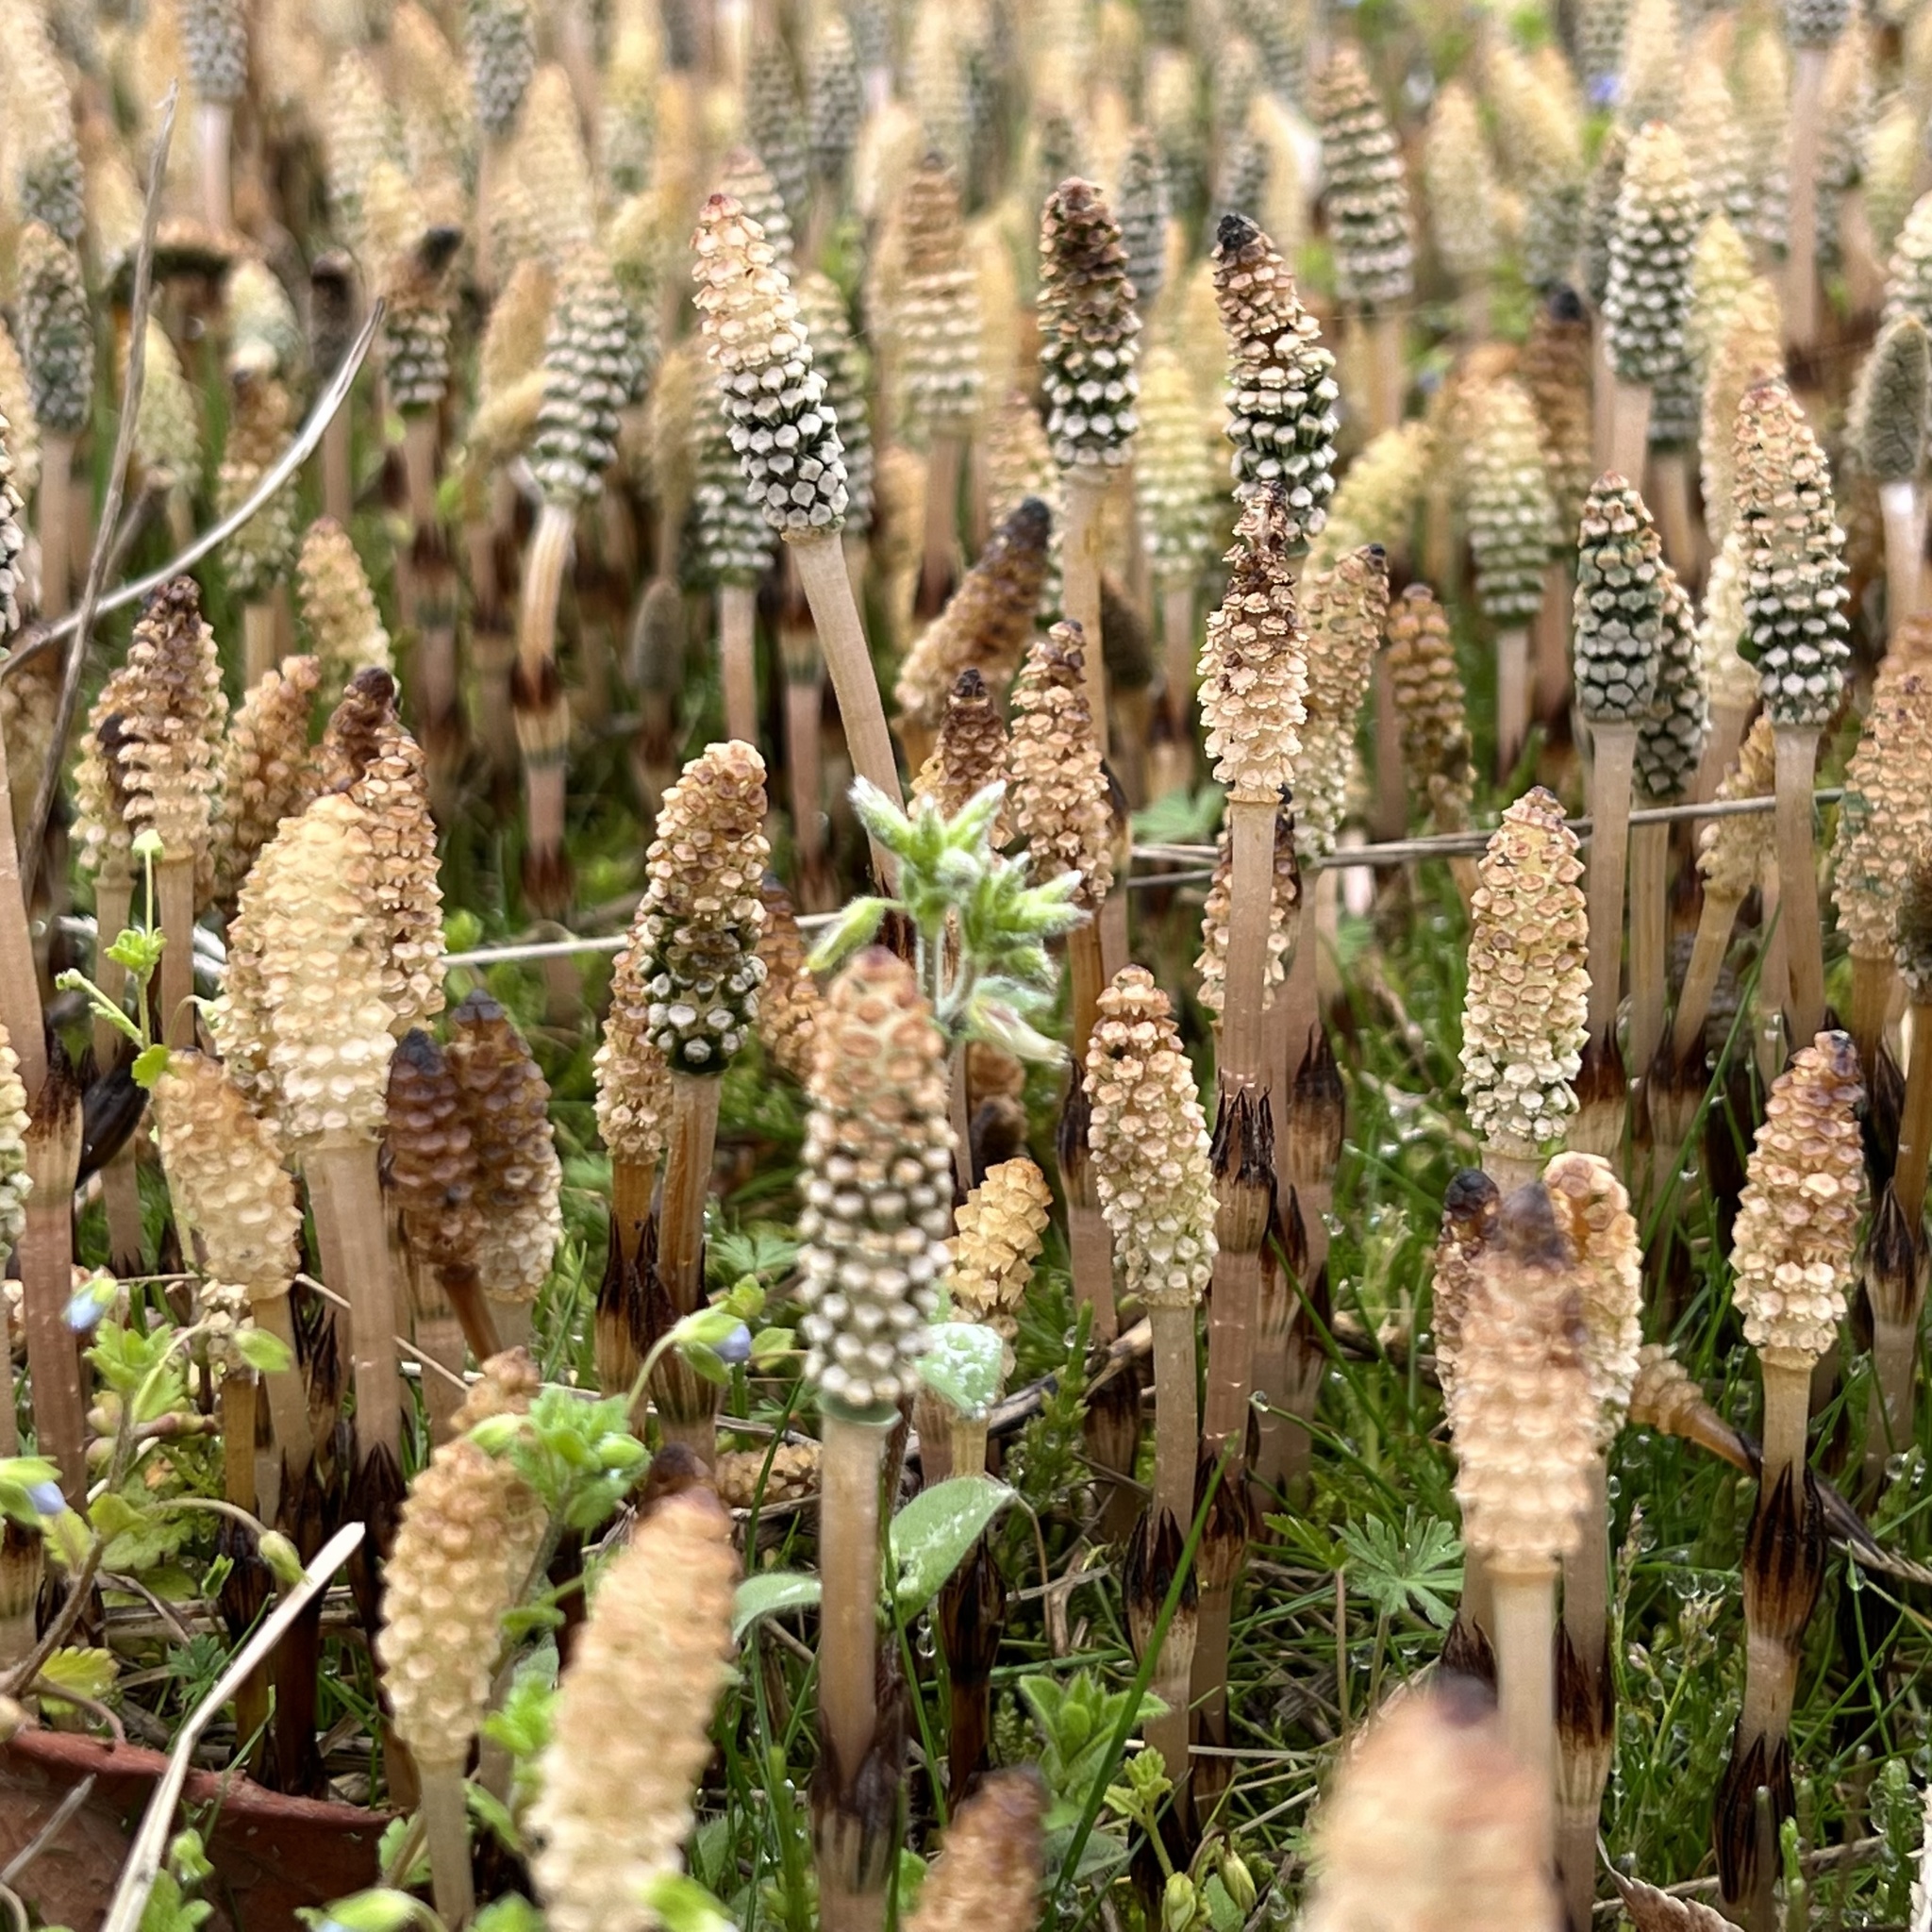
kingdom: Plantae
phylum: Tracheophyta
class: Polypodiopsida
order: Equisetales
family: Equisetaceae
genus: Equisetum
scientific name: Equisetum arvense
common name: Field horsetail
